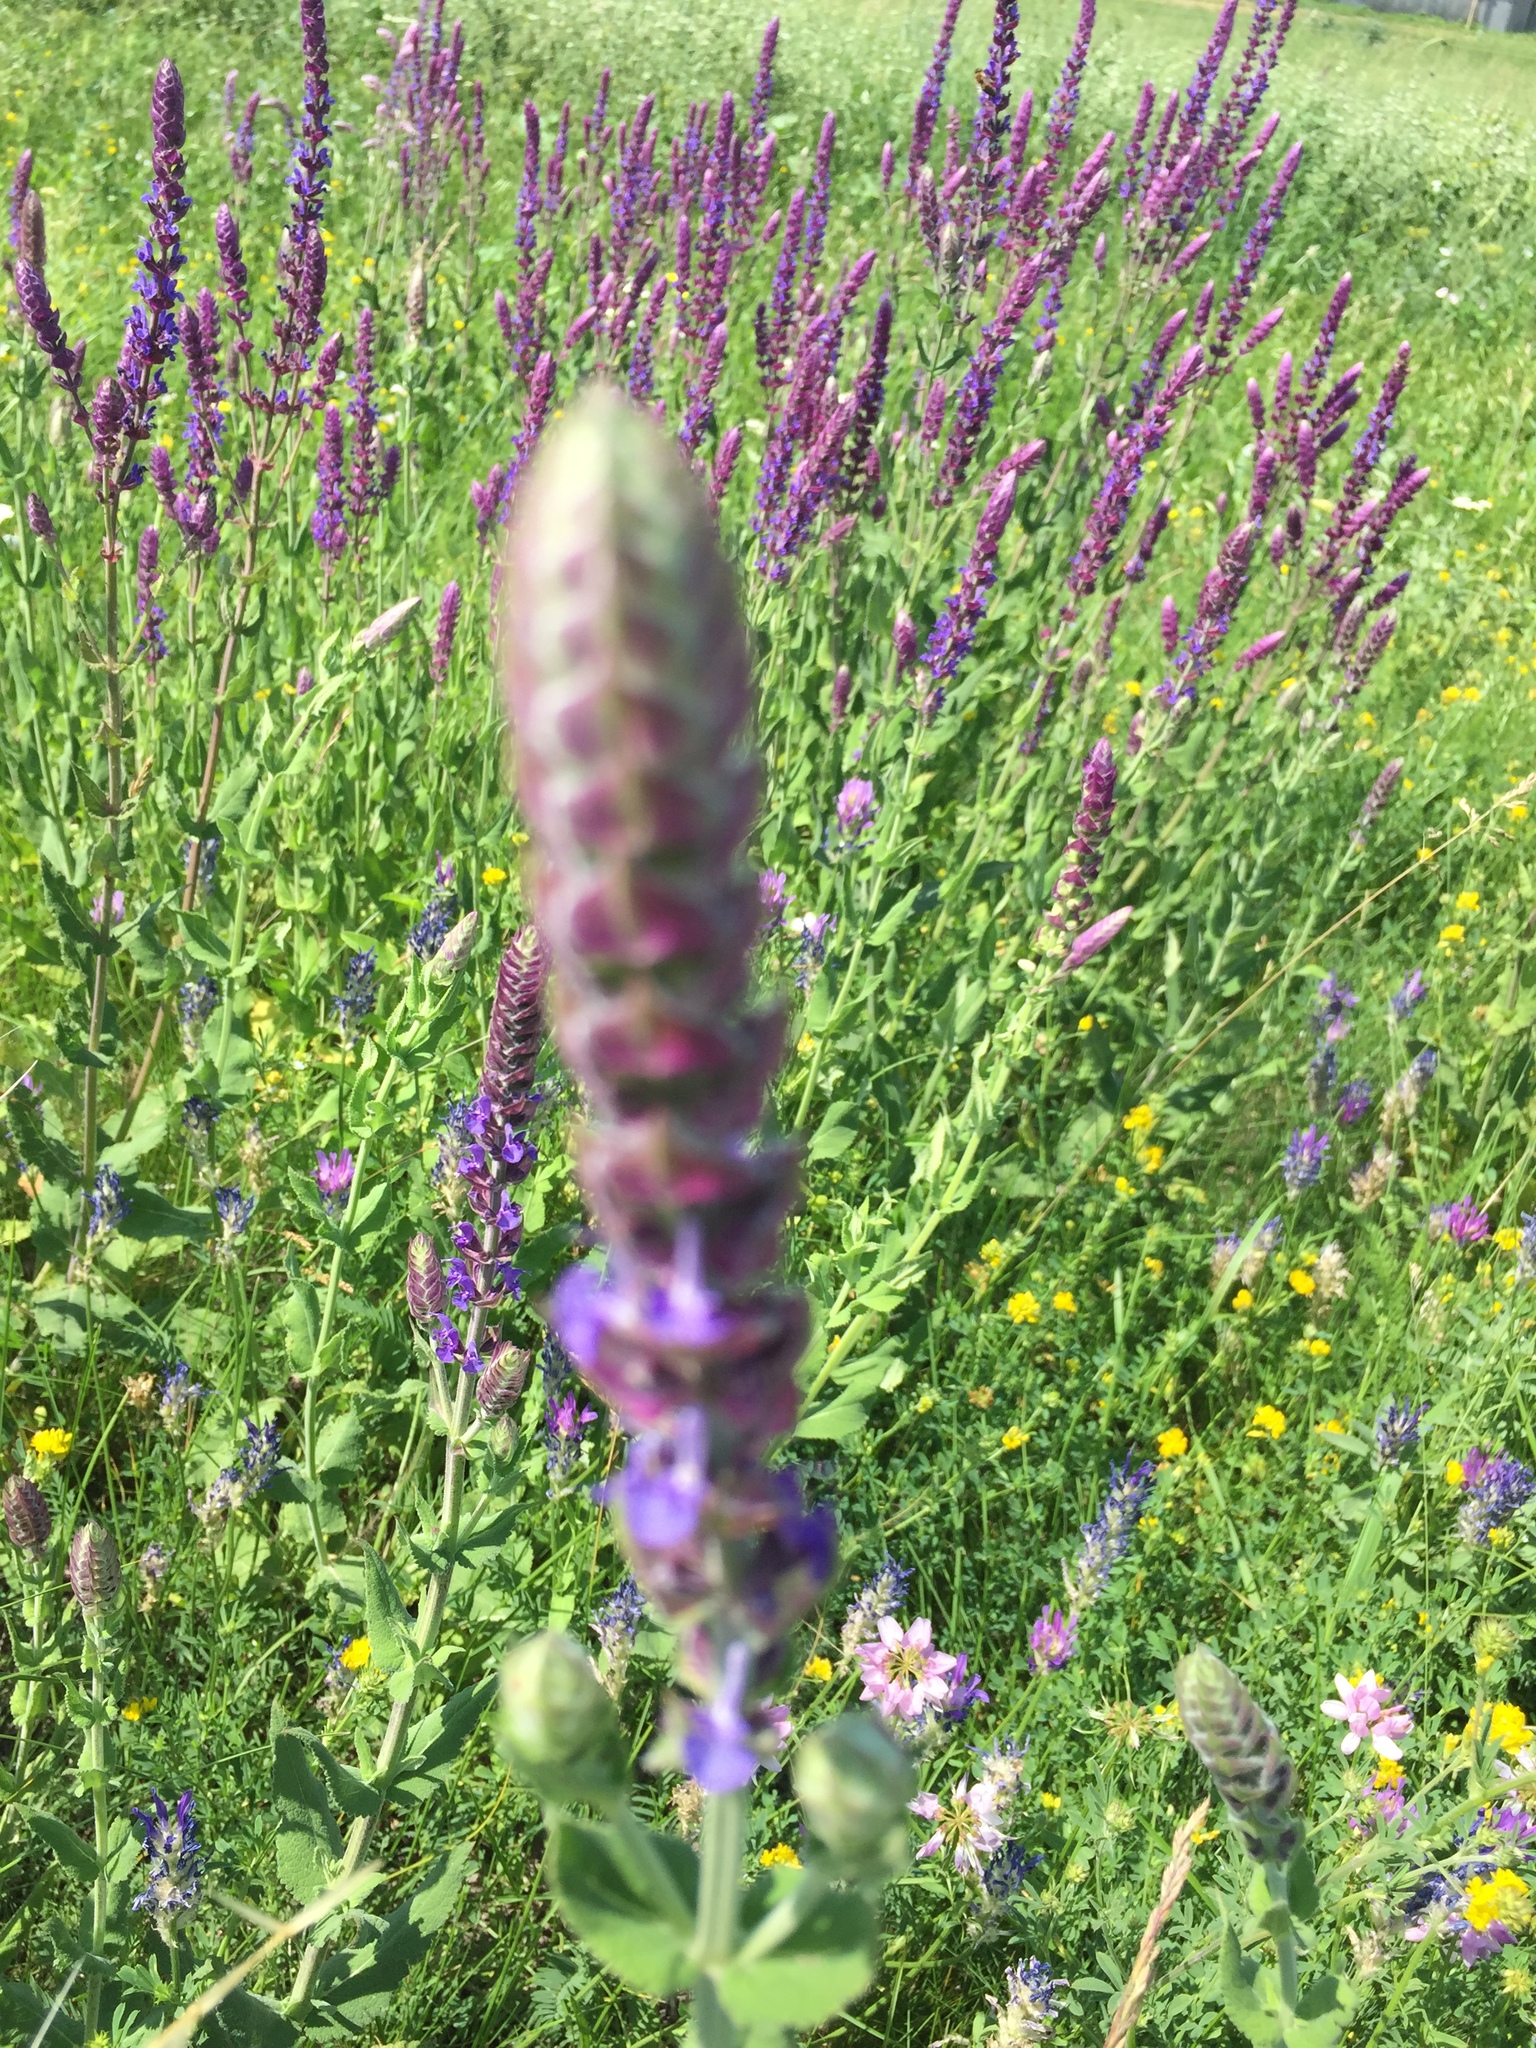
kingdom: Plantae
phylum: Tracheophyta
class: Magnoliopsida
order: Lamiales
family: Lamiaceae
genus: Salvia
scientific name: Salvia nemorosa
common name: Balkan clary
